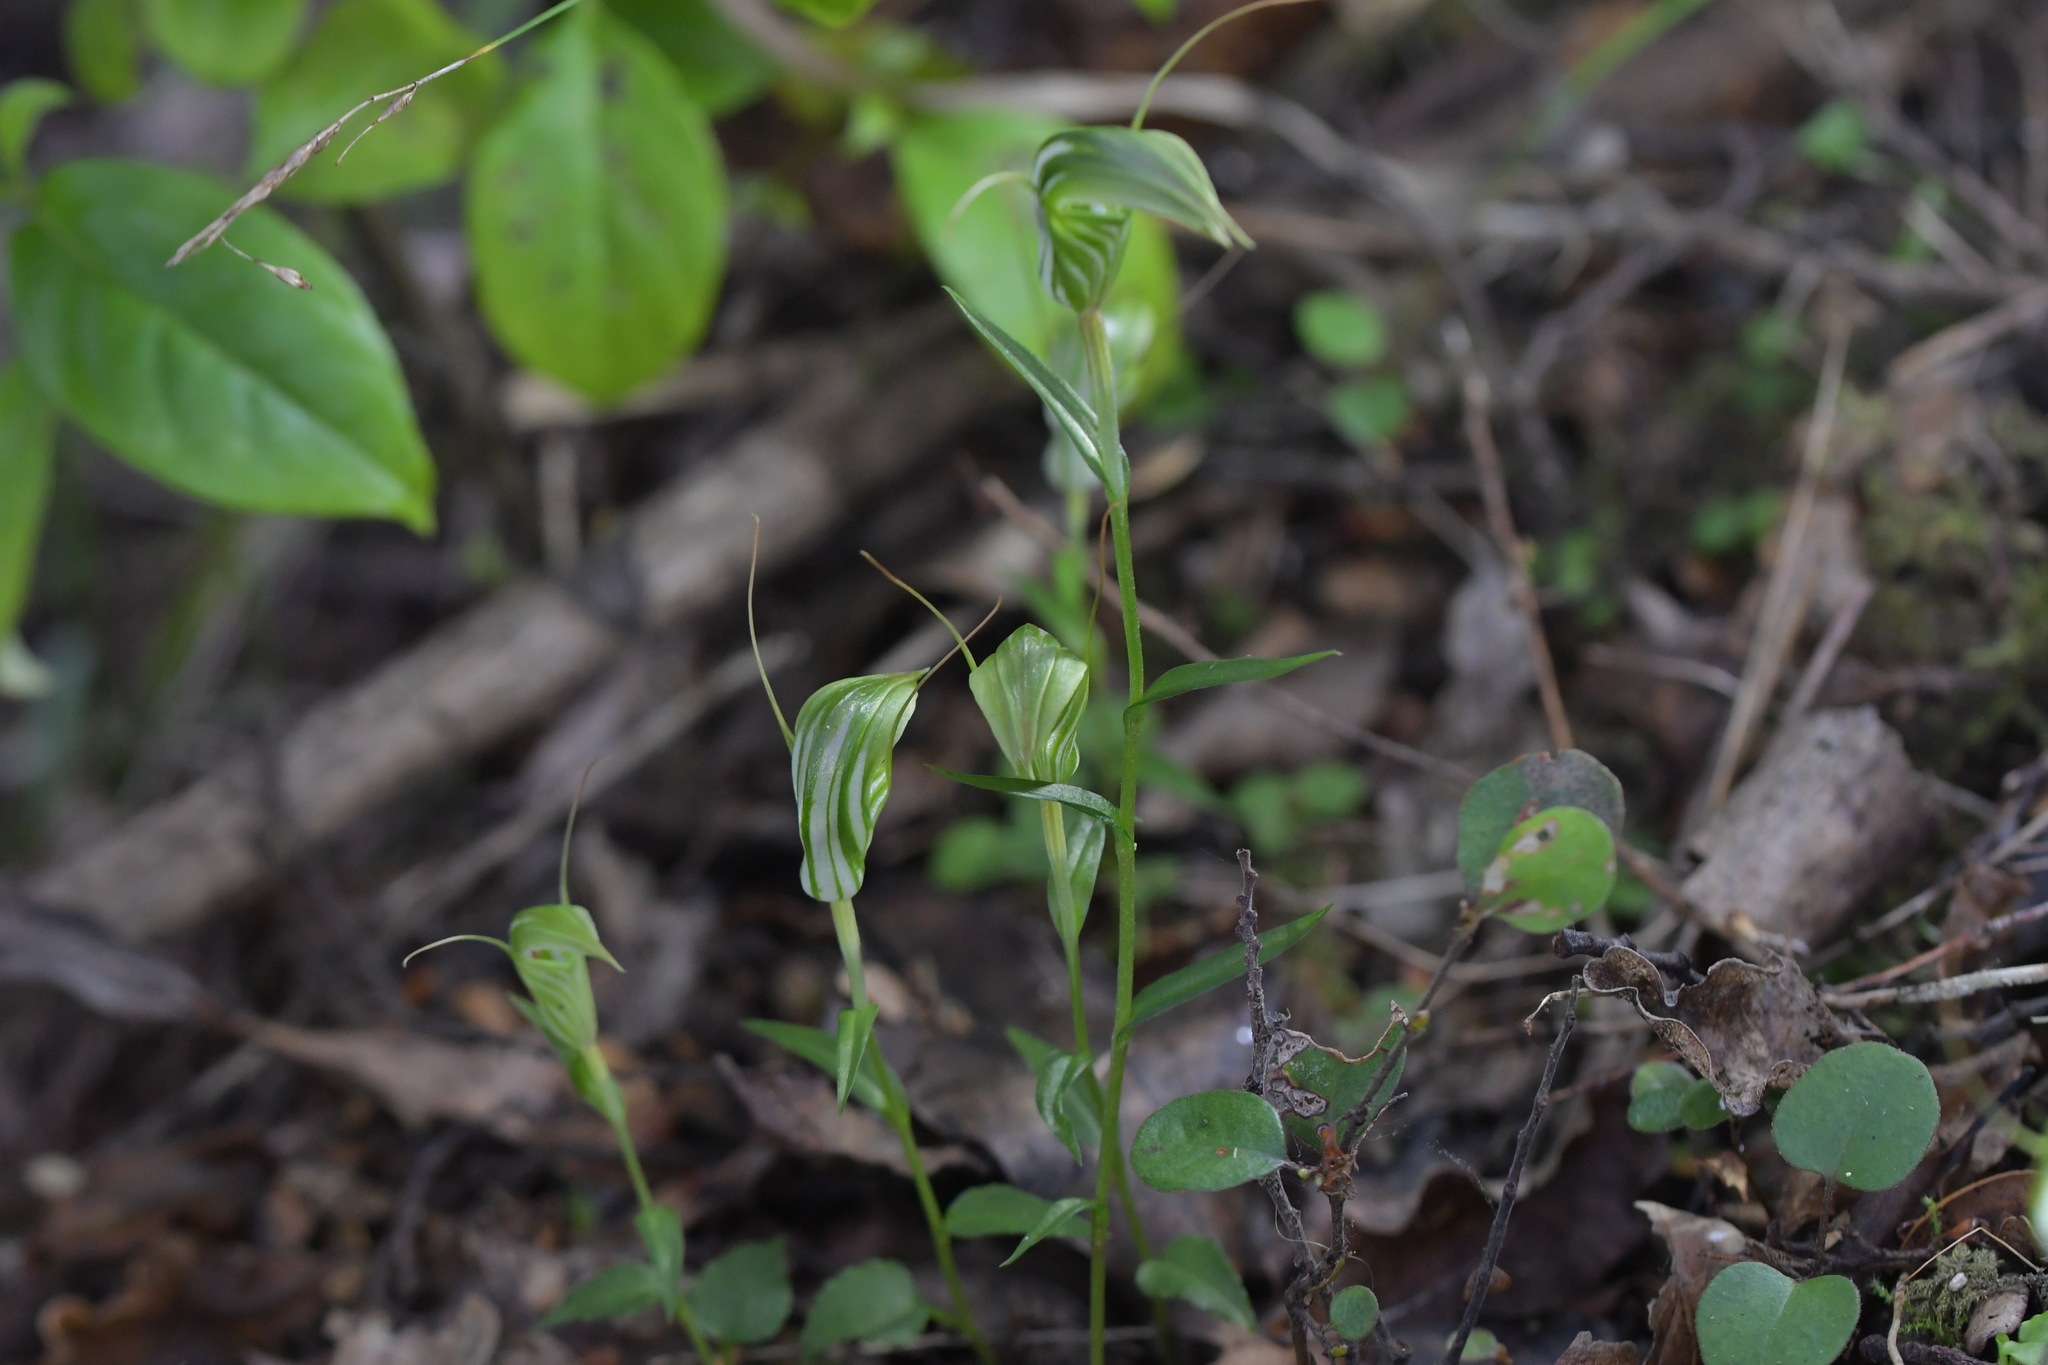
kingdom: Plantae
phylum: Tracheophyta
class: Liliopsida
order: Asparagales
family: Orchidaceae
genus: Pterostylis
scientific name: Pterostylis alobula
